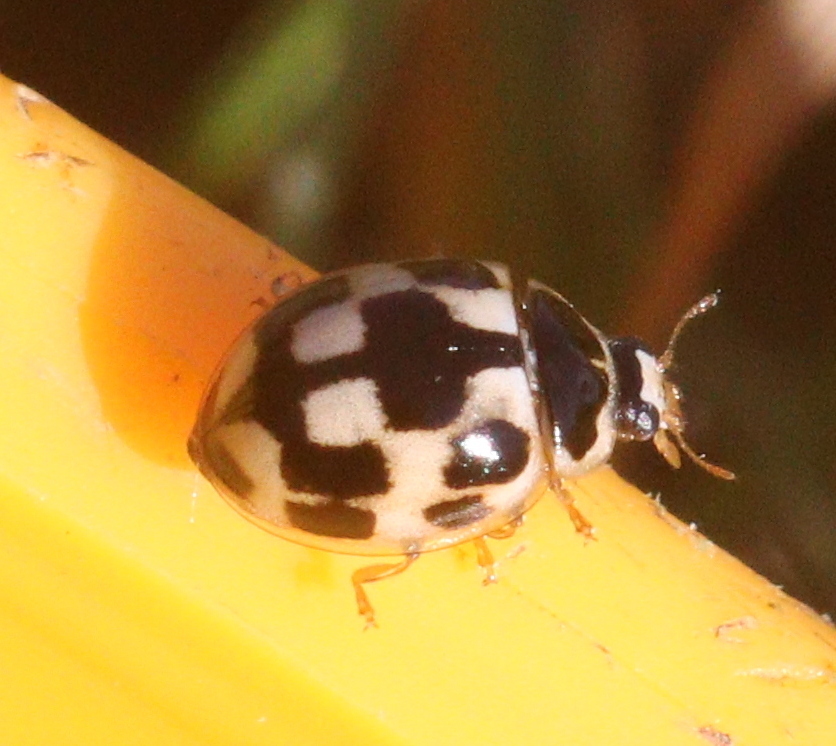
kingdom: Animalia
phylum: Arthropoda
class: Insecta
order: Coleoptera
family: Coccinellidae
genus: Propylaea
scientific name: Propylaea quatuordecimpunctata
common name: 14-spotted ladybird beetle
